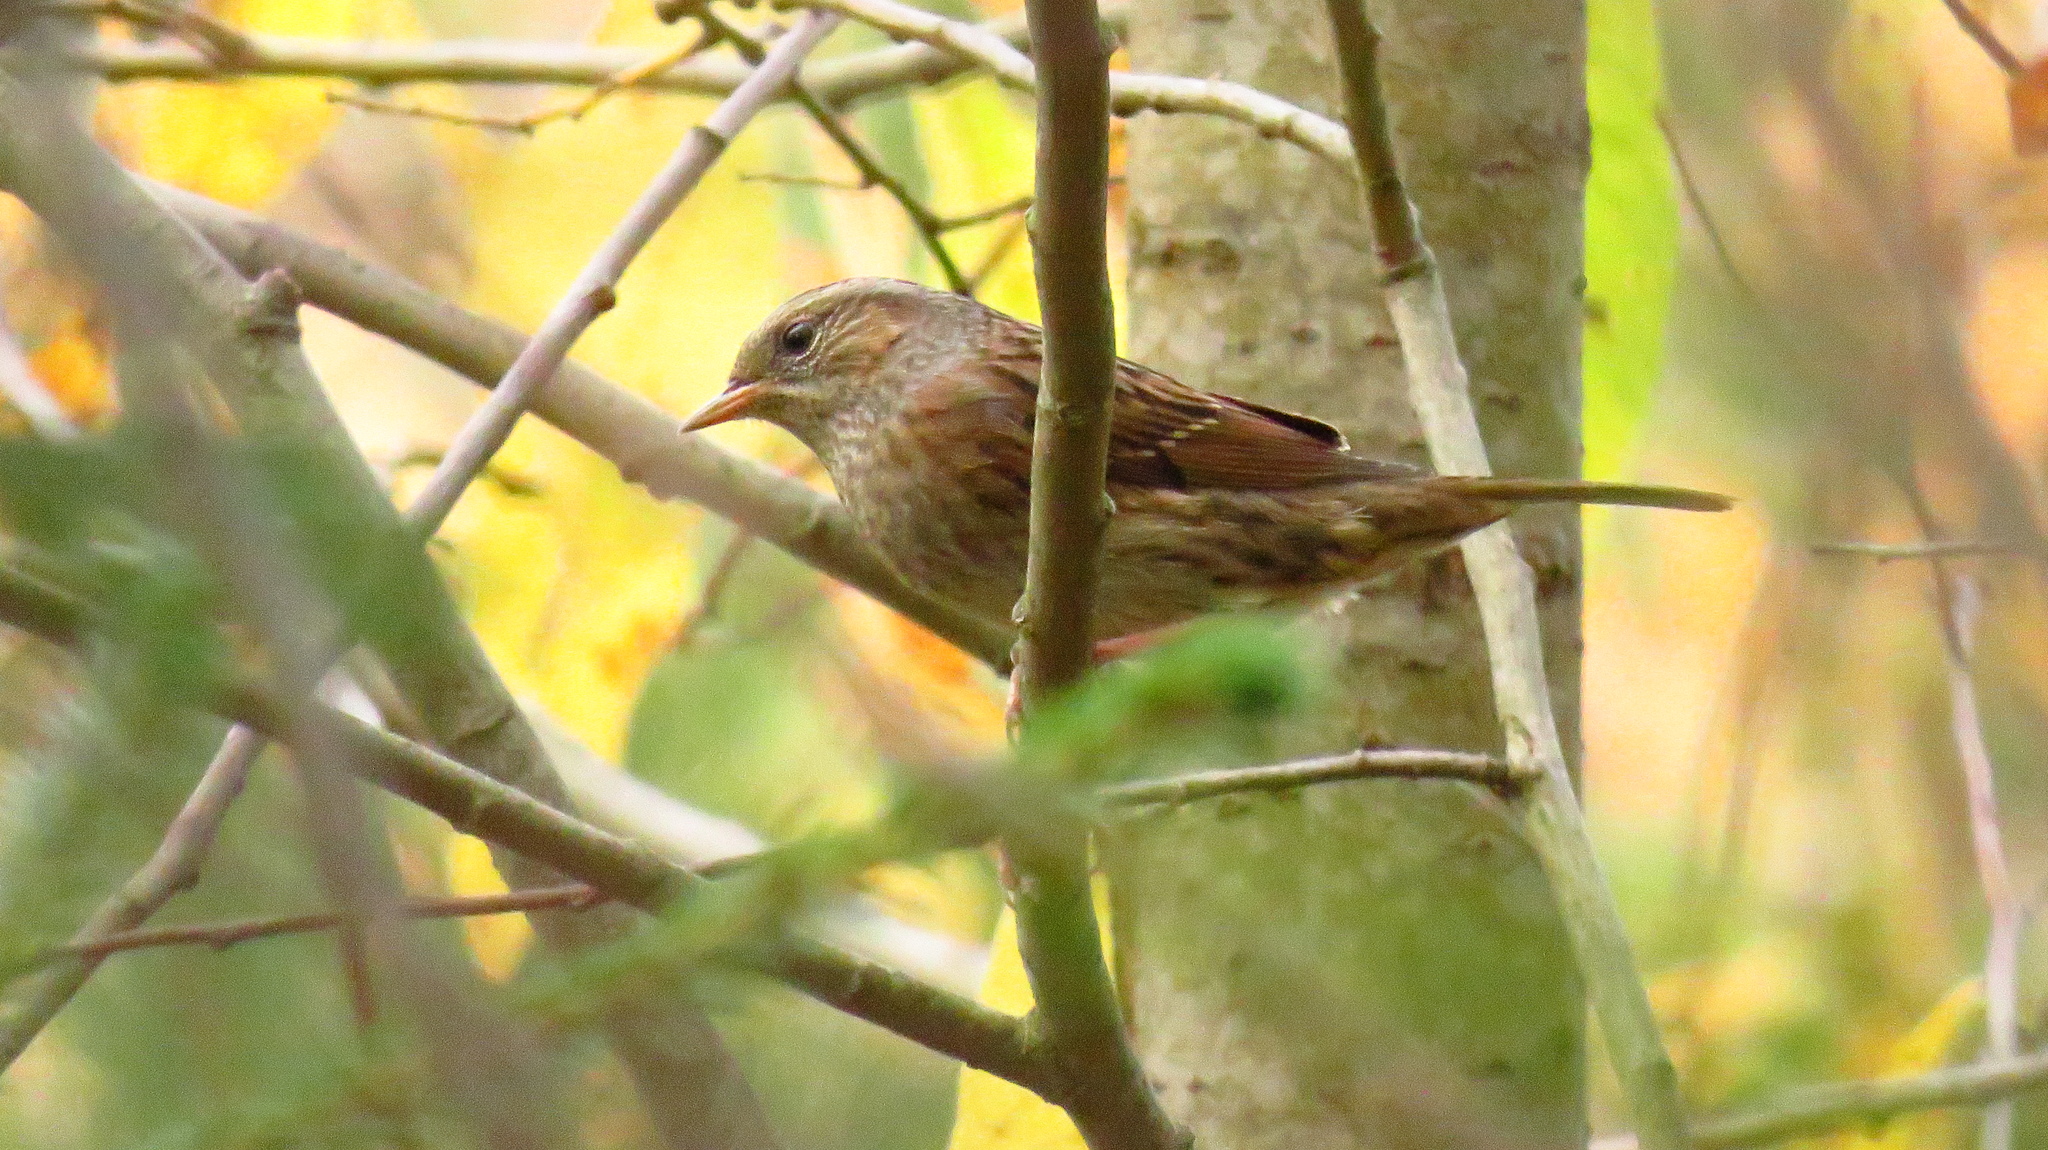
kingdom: Animalia
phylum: Chordata
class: Aves
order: Passeriformes
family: Prunellidae
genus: Prunella
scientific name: Prunella modularis
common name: Dunnock
